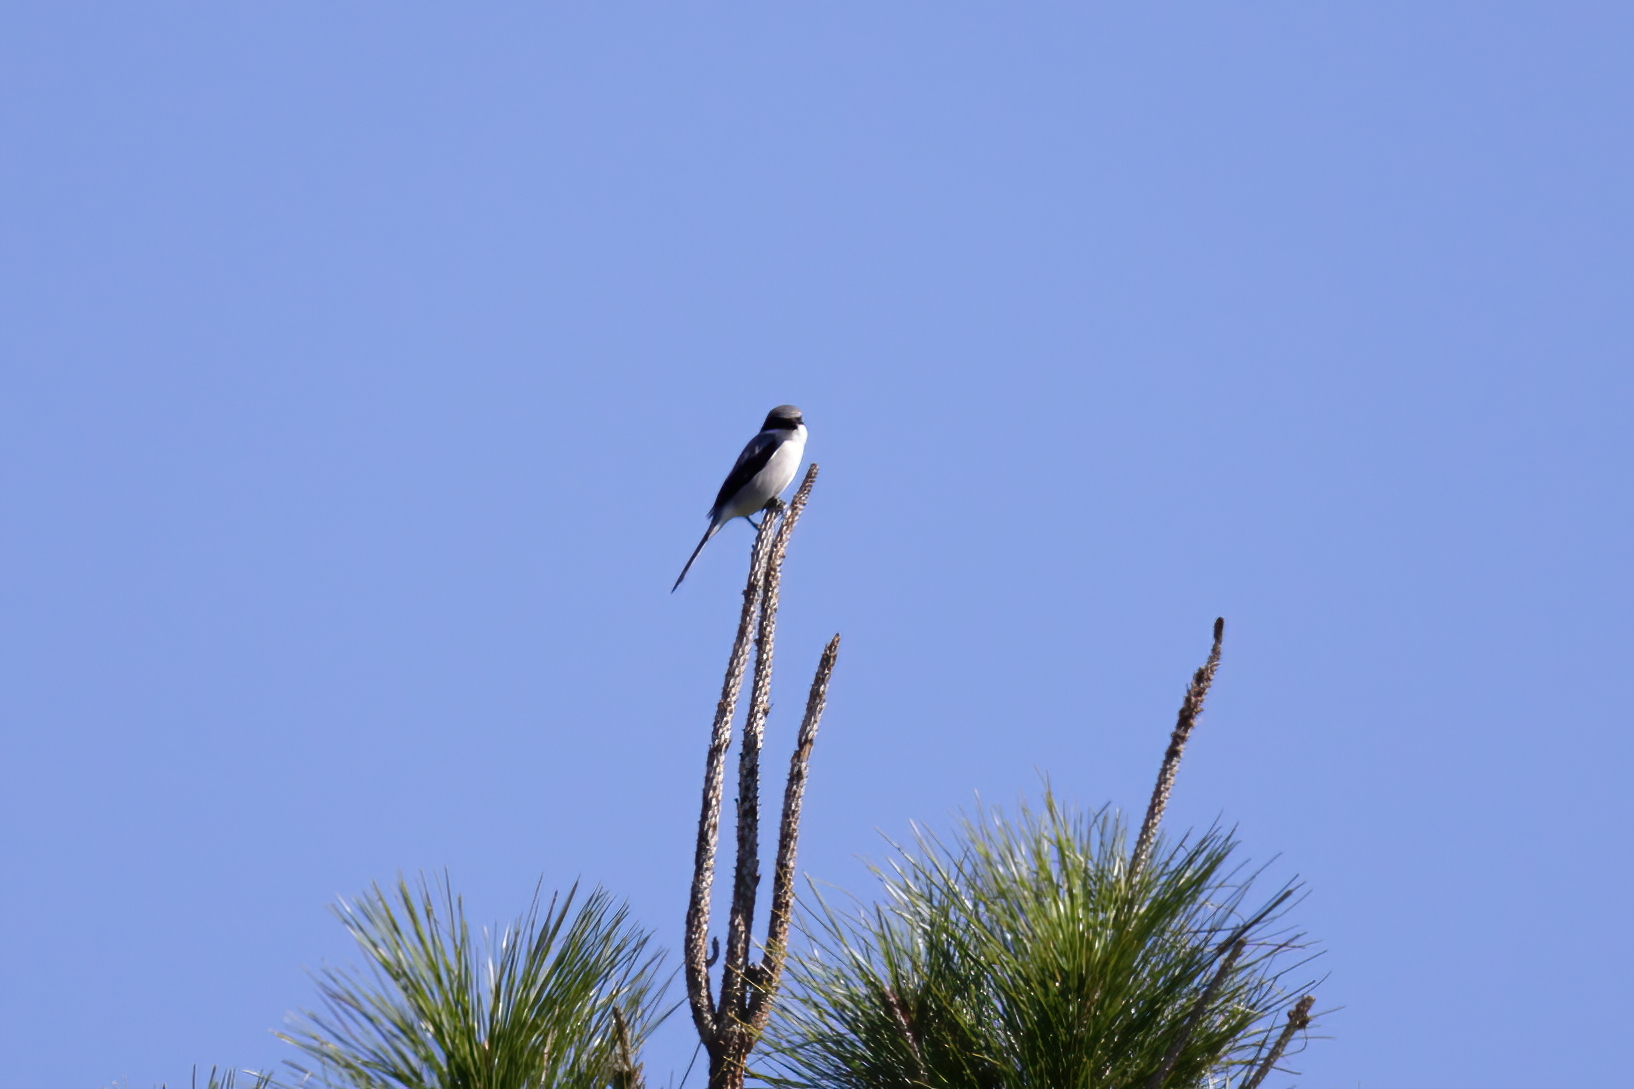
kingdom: Animalia
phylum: Chordata
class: Aves
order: Passeriformes
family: Laniidae
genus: Lanius
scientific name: Lanius ludovicianus
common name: Loggerhead shrike
